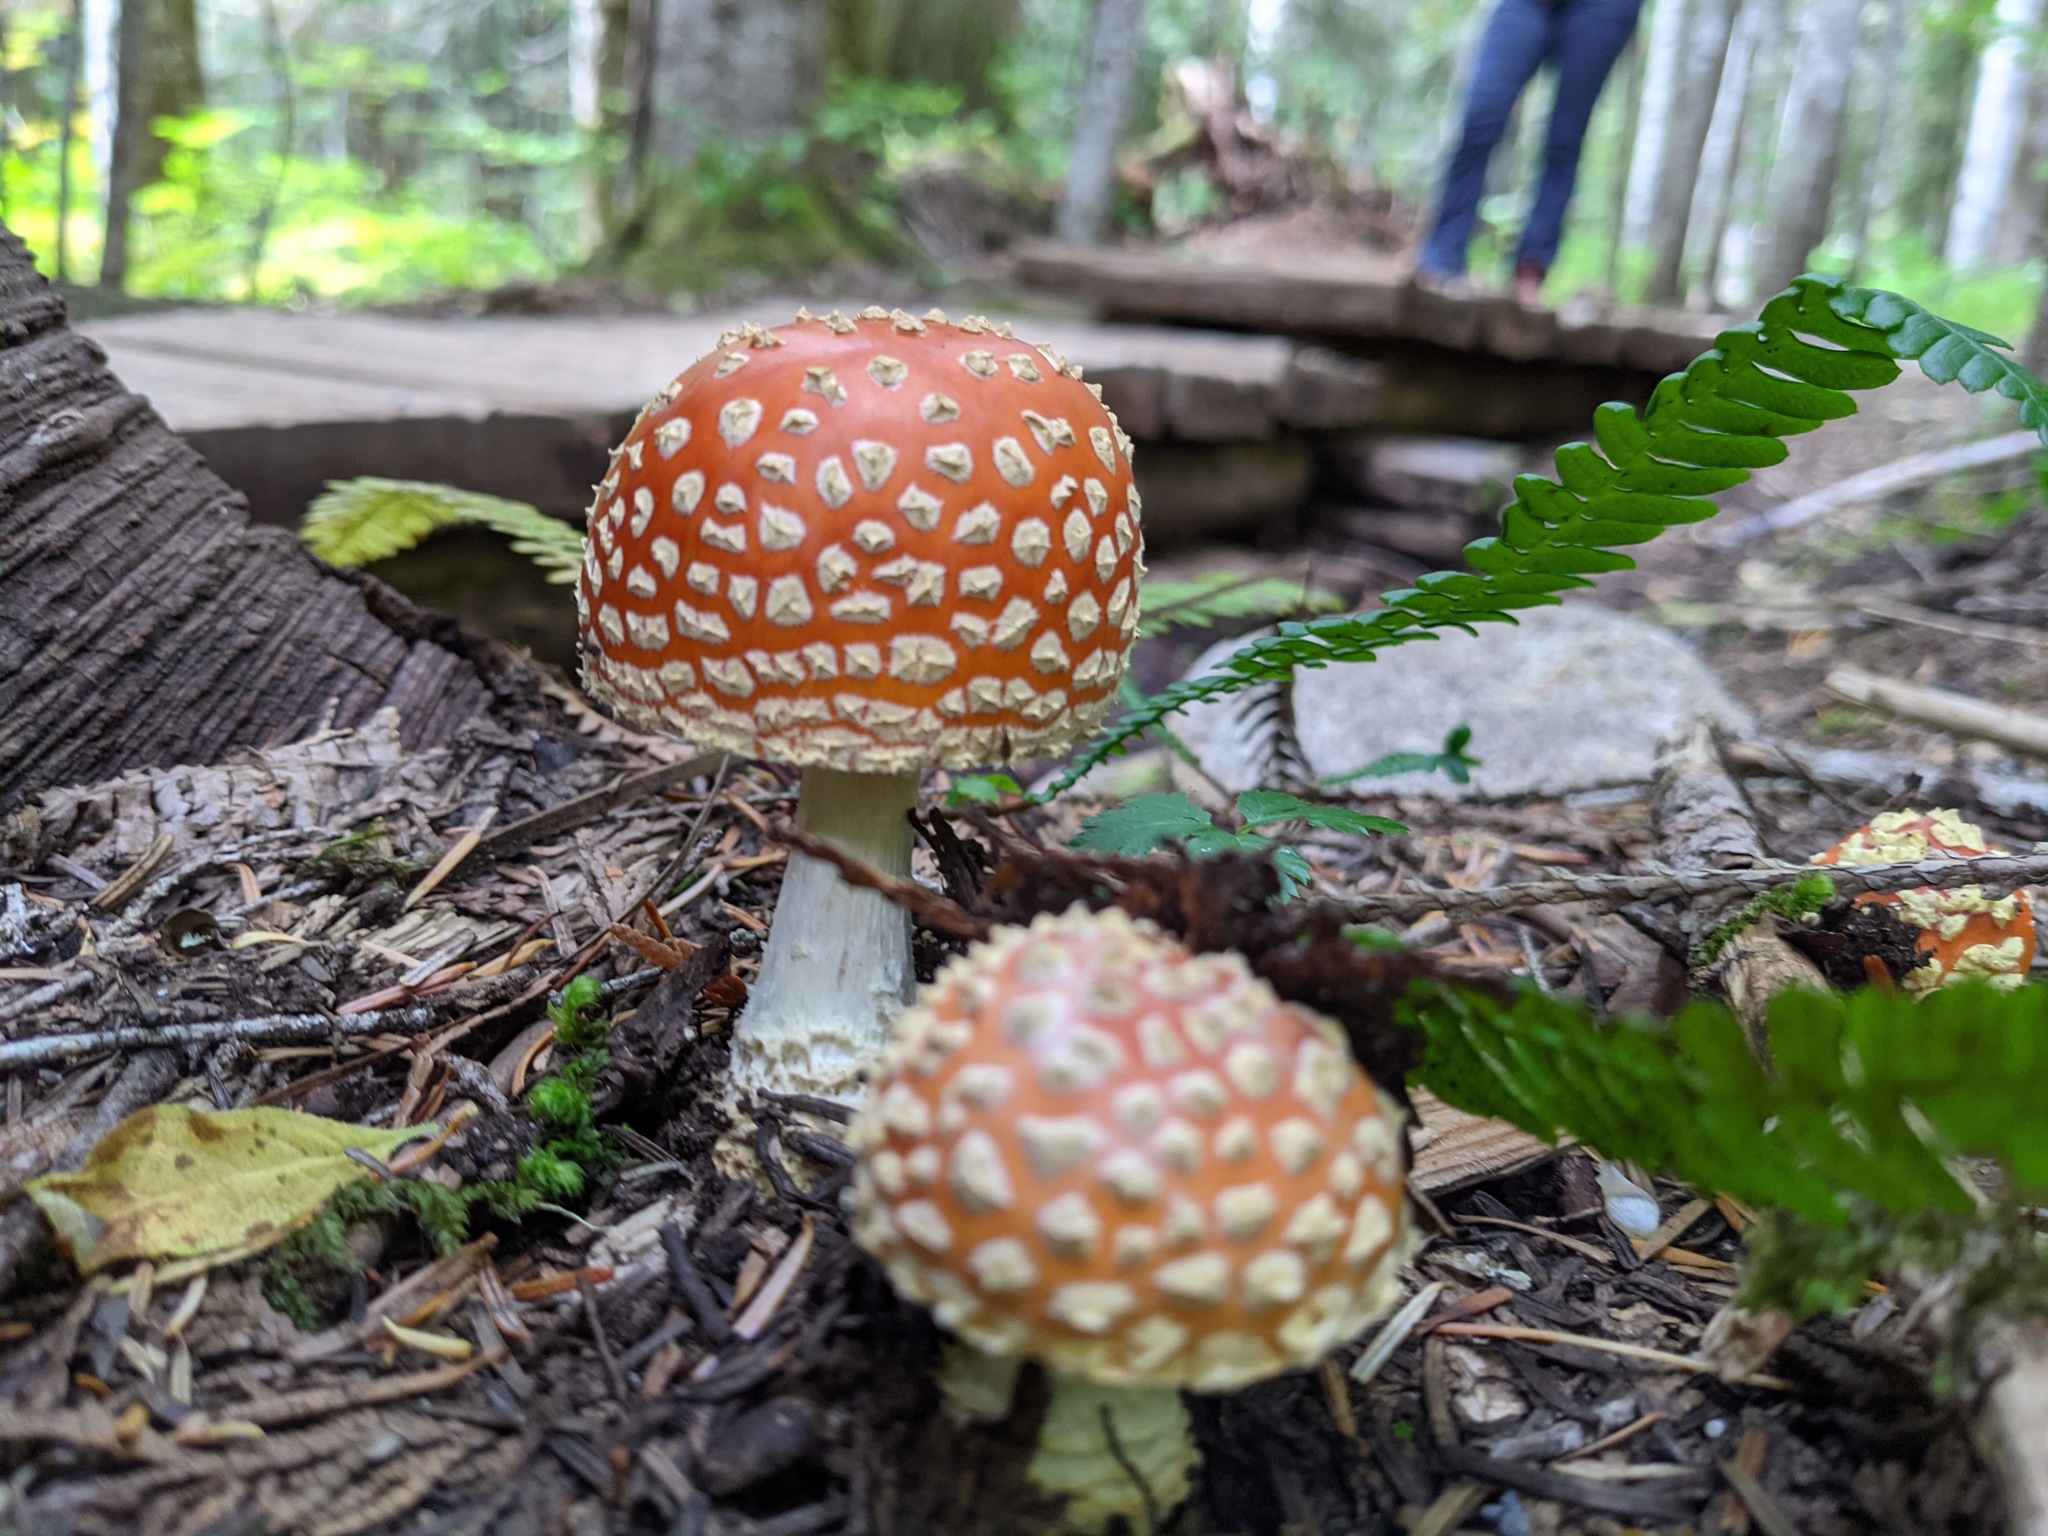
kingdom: Fungi
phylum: Basidiomycota
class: Agaricomycetes
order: Agaricales
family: Amanitaceae
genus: Amanita
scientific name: Amanita muscaria
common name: Fly agaric
